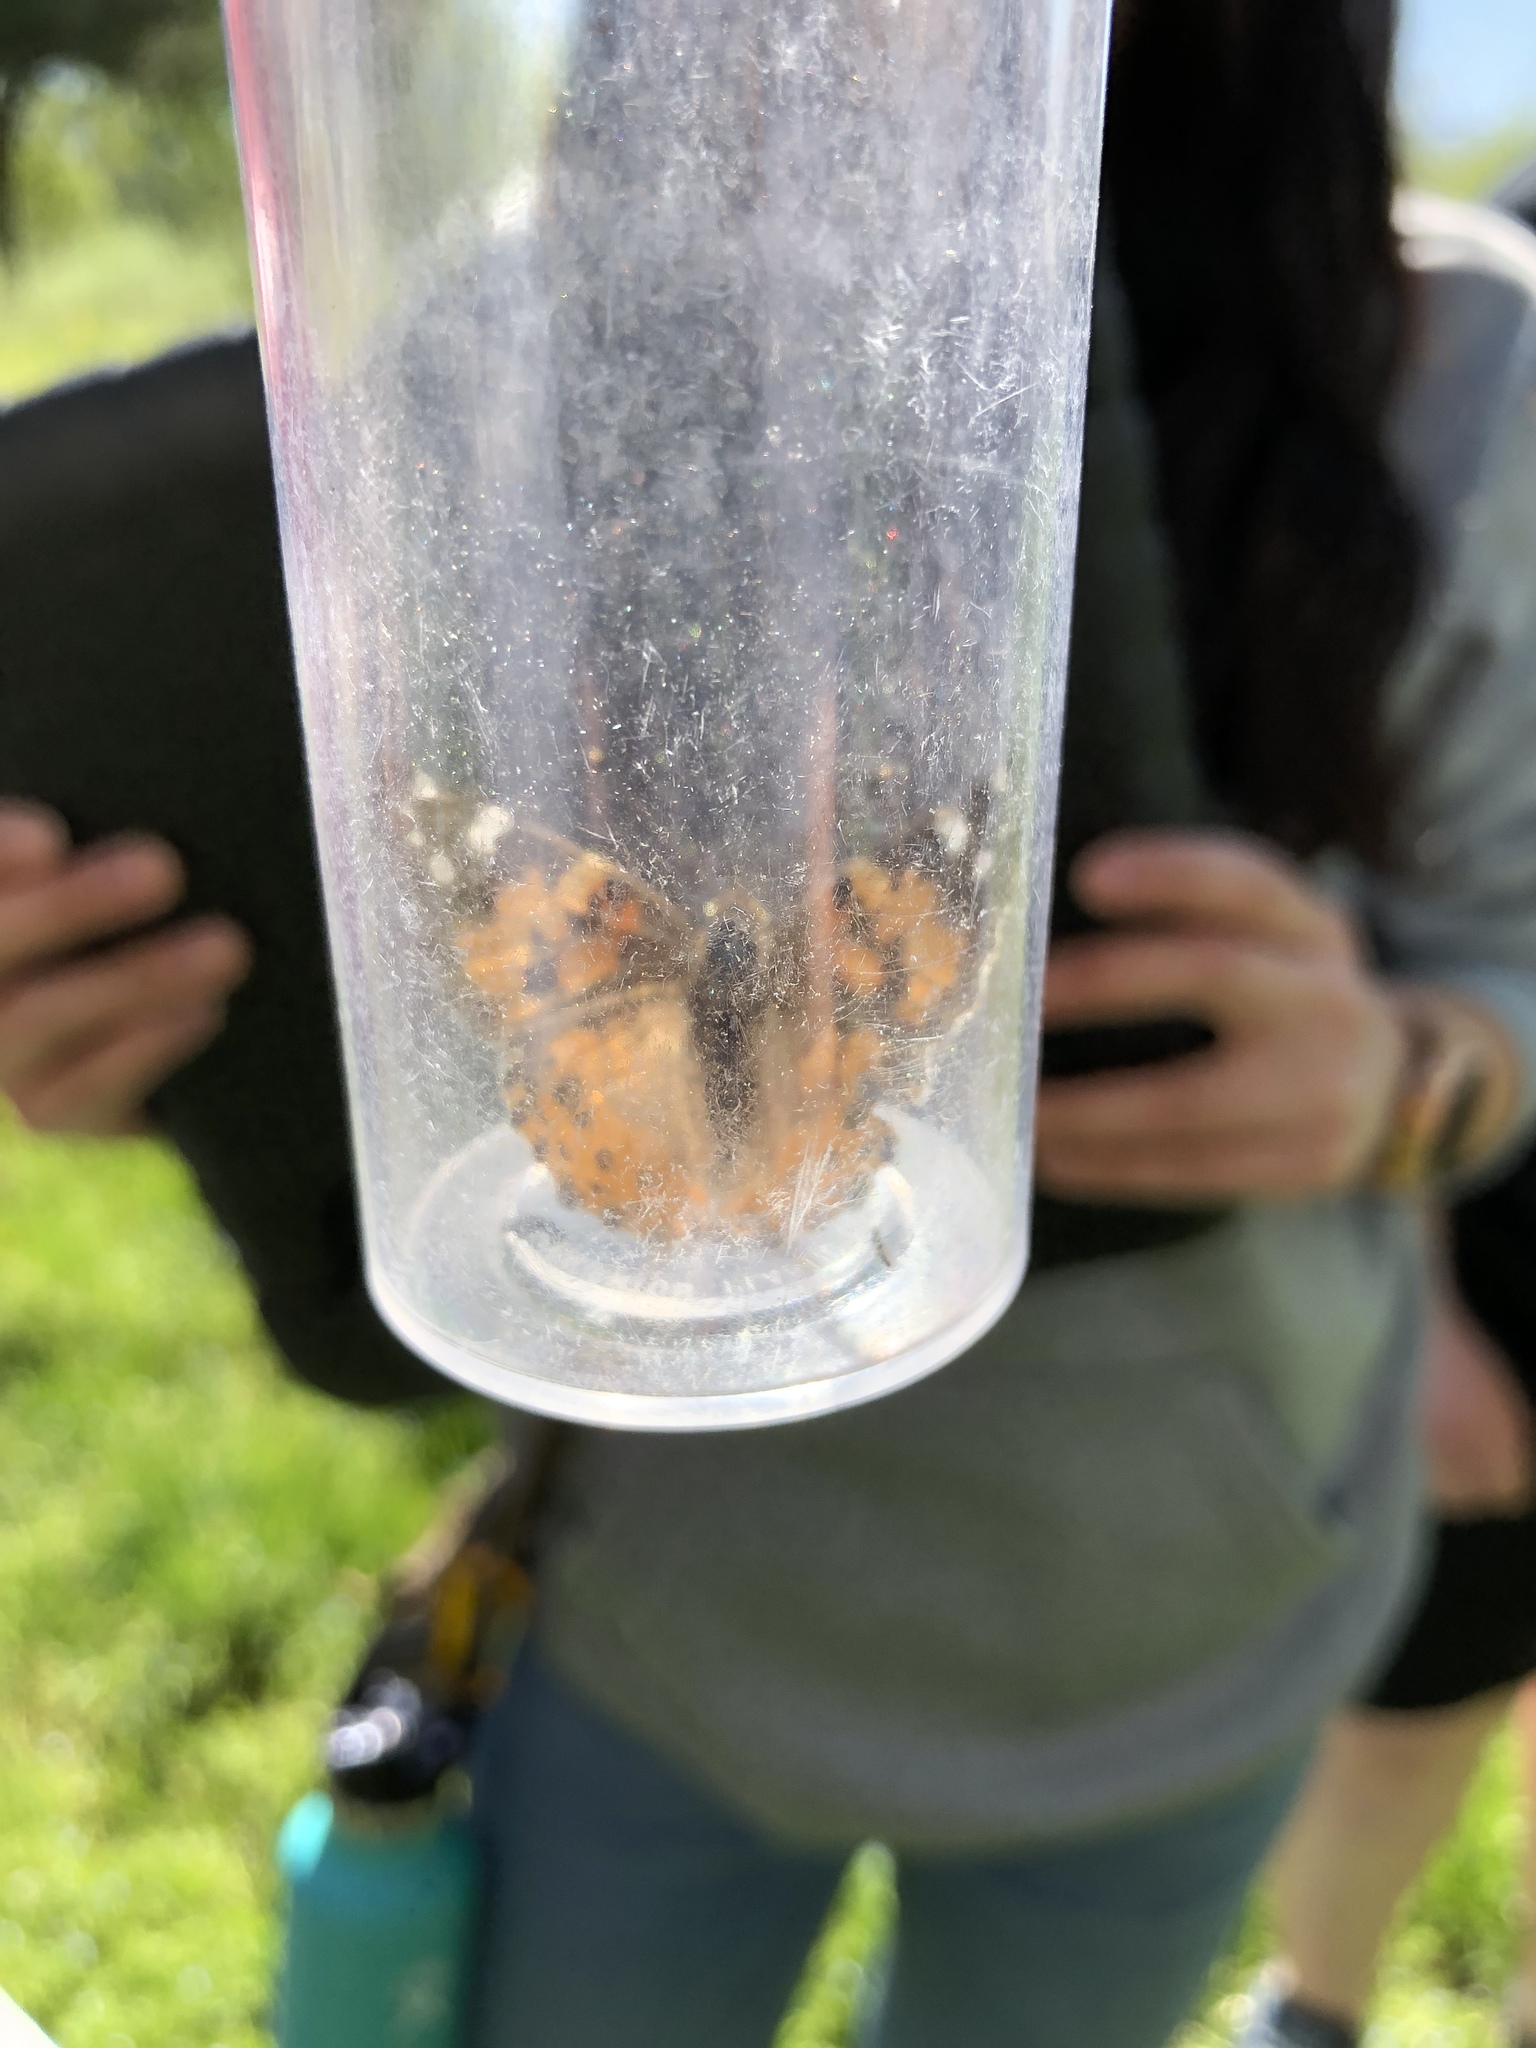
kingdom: Animalia
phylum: Arthropoda
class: Insecta
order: Lepidoptera
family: Nymphalidae
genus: Vanessa
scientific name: Vanessa cardui
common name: Painted lady
